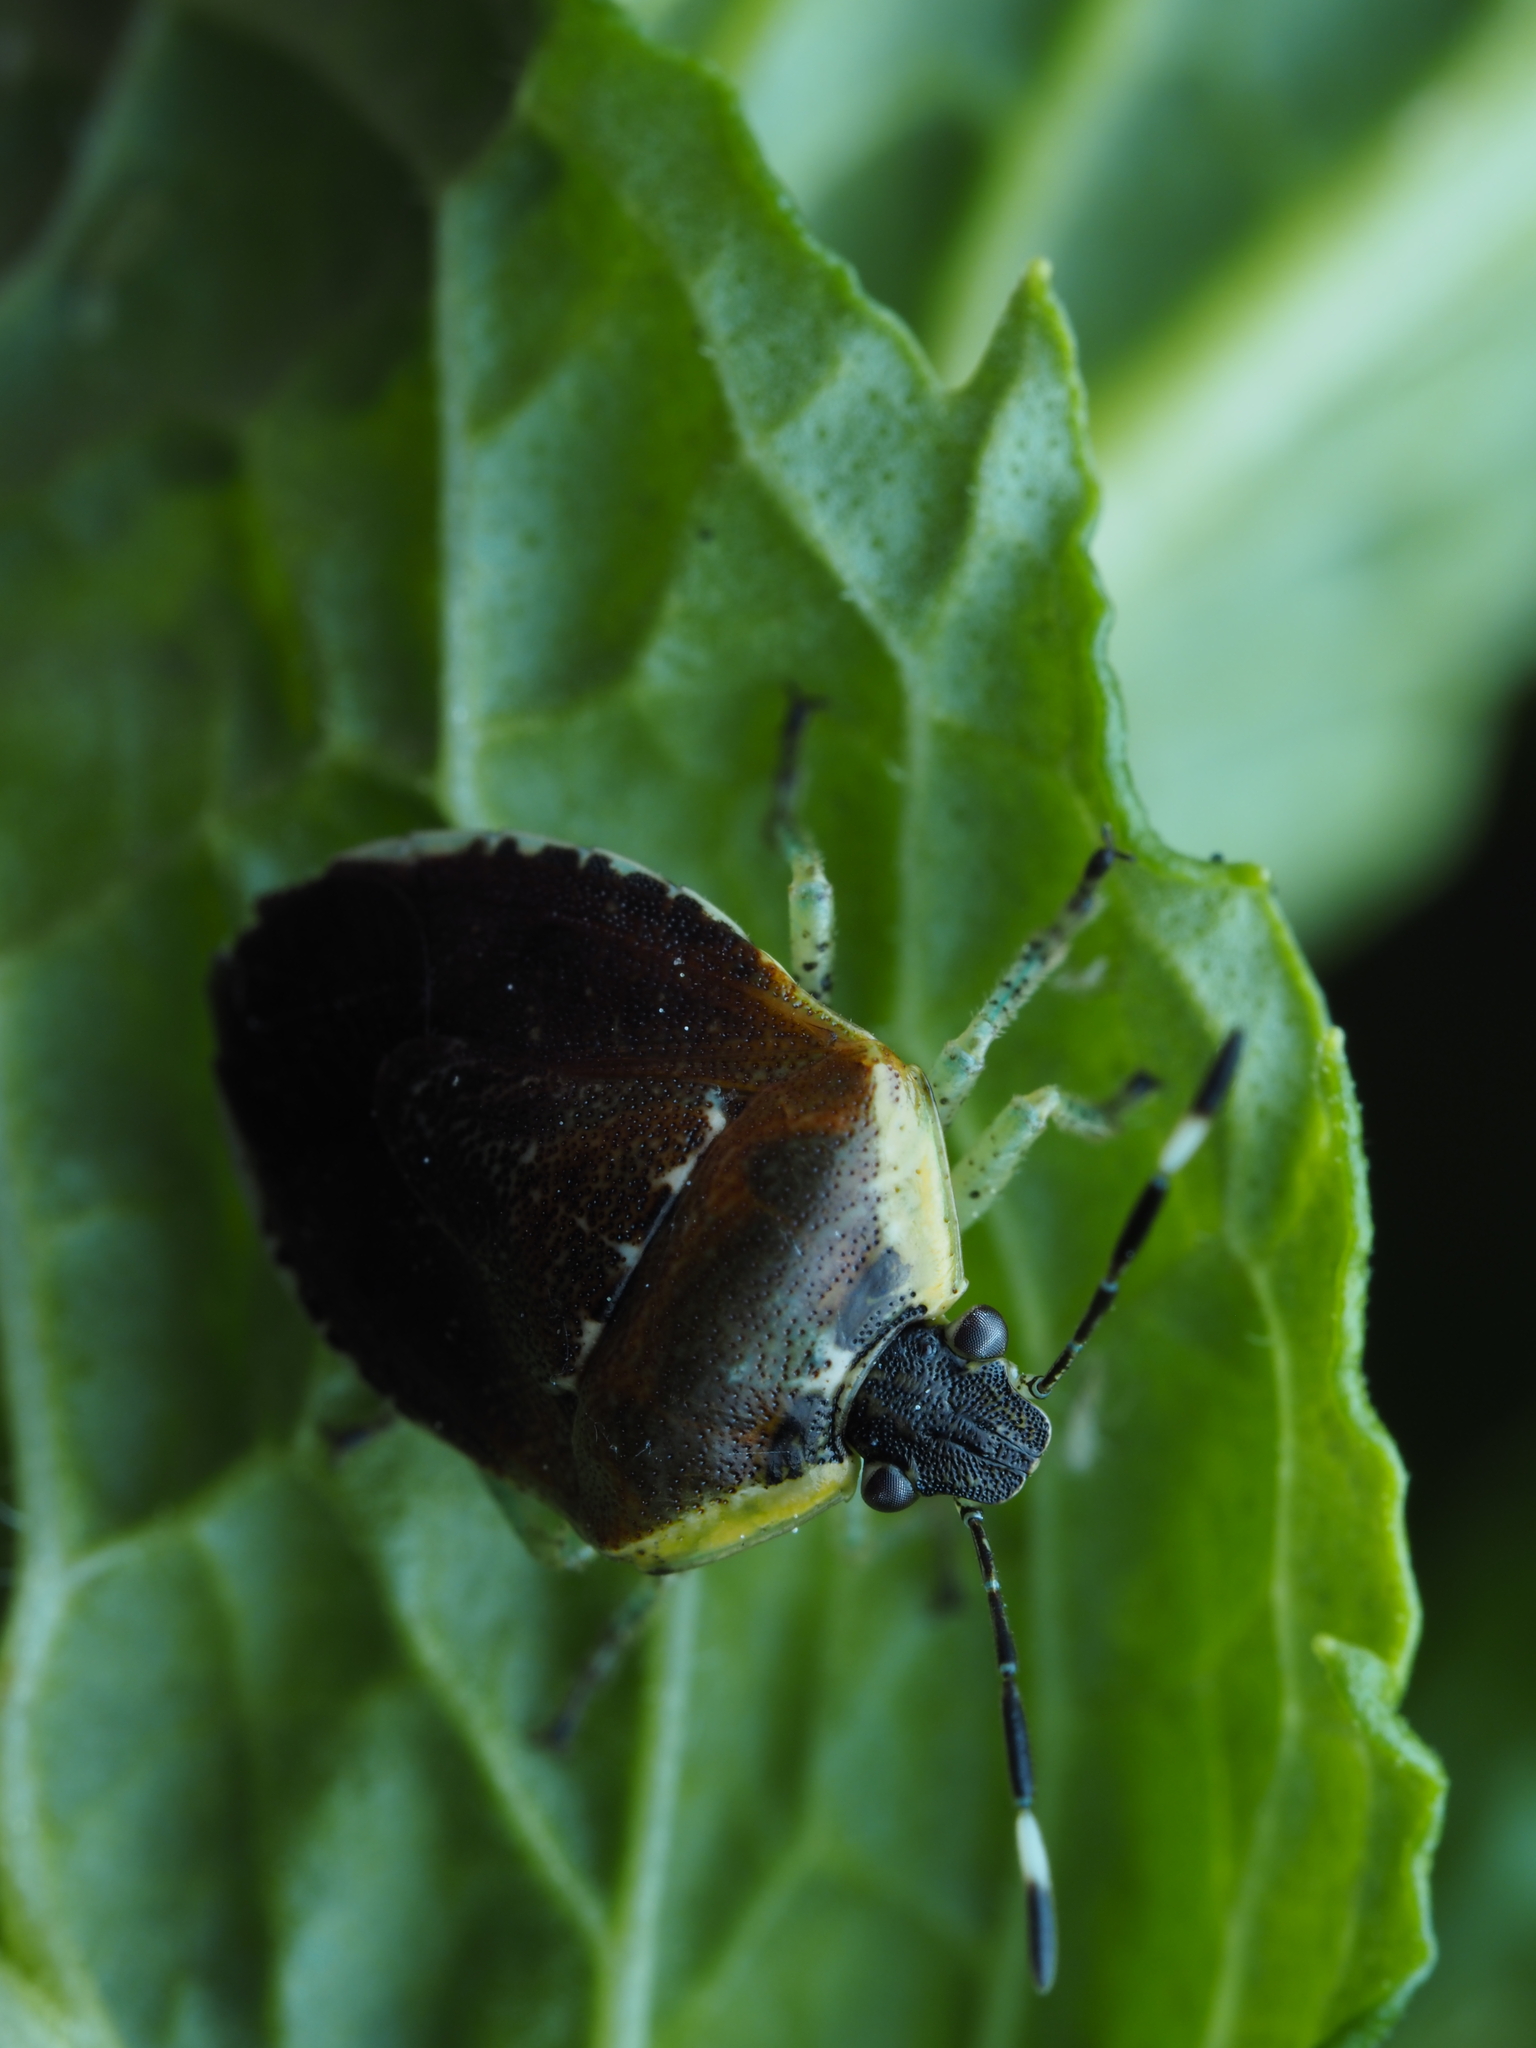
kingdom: Animalia
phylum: Arthropoda
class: Insecta
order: Hemiptera
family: Pentatomidae
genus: Monteithiella
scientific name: Monteithiella
